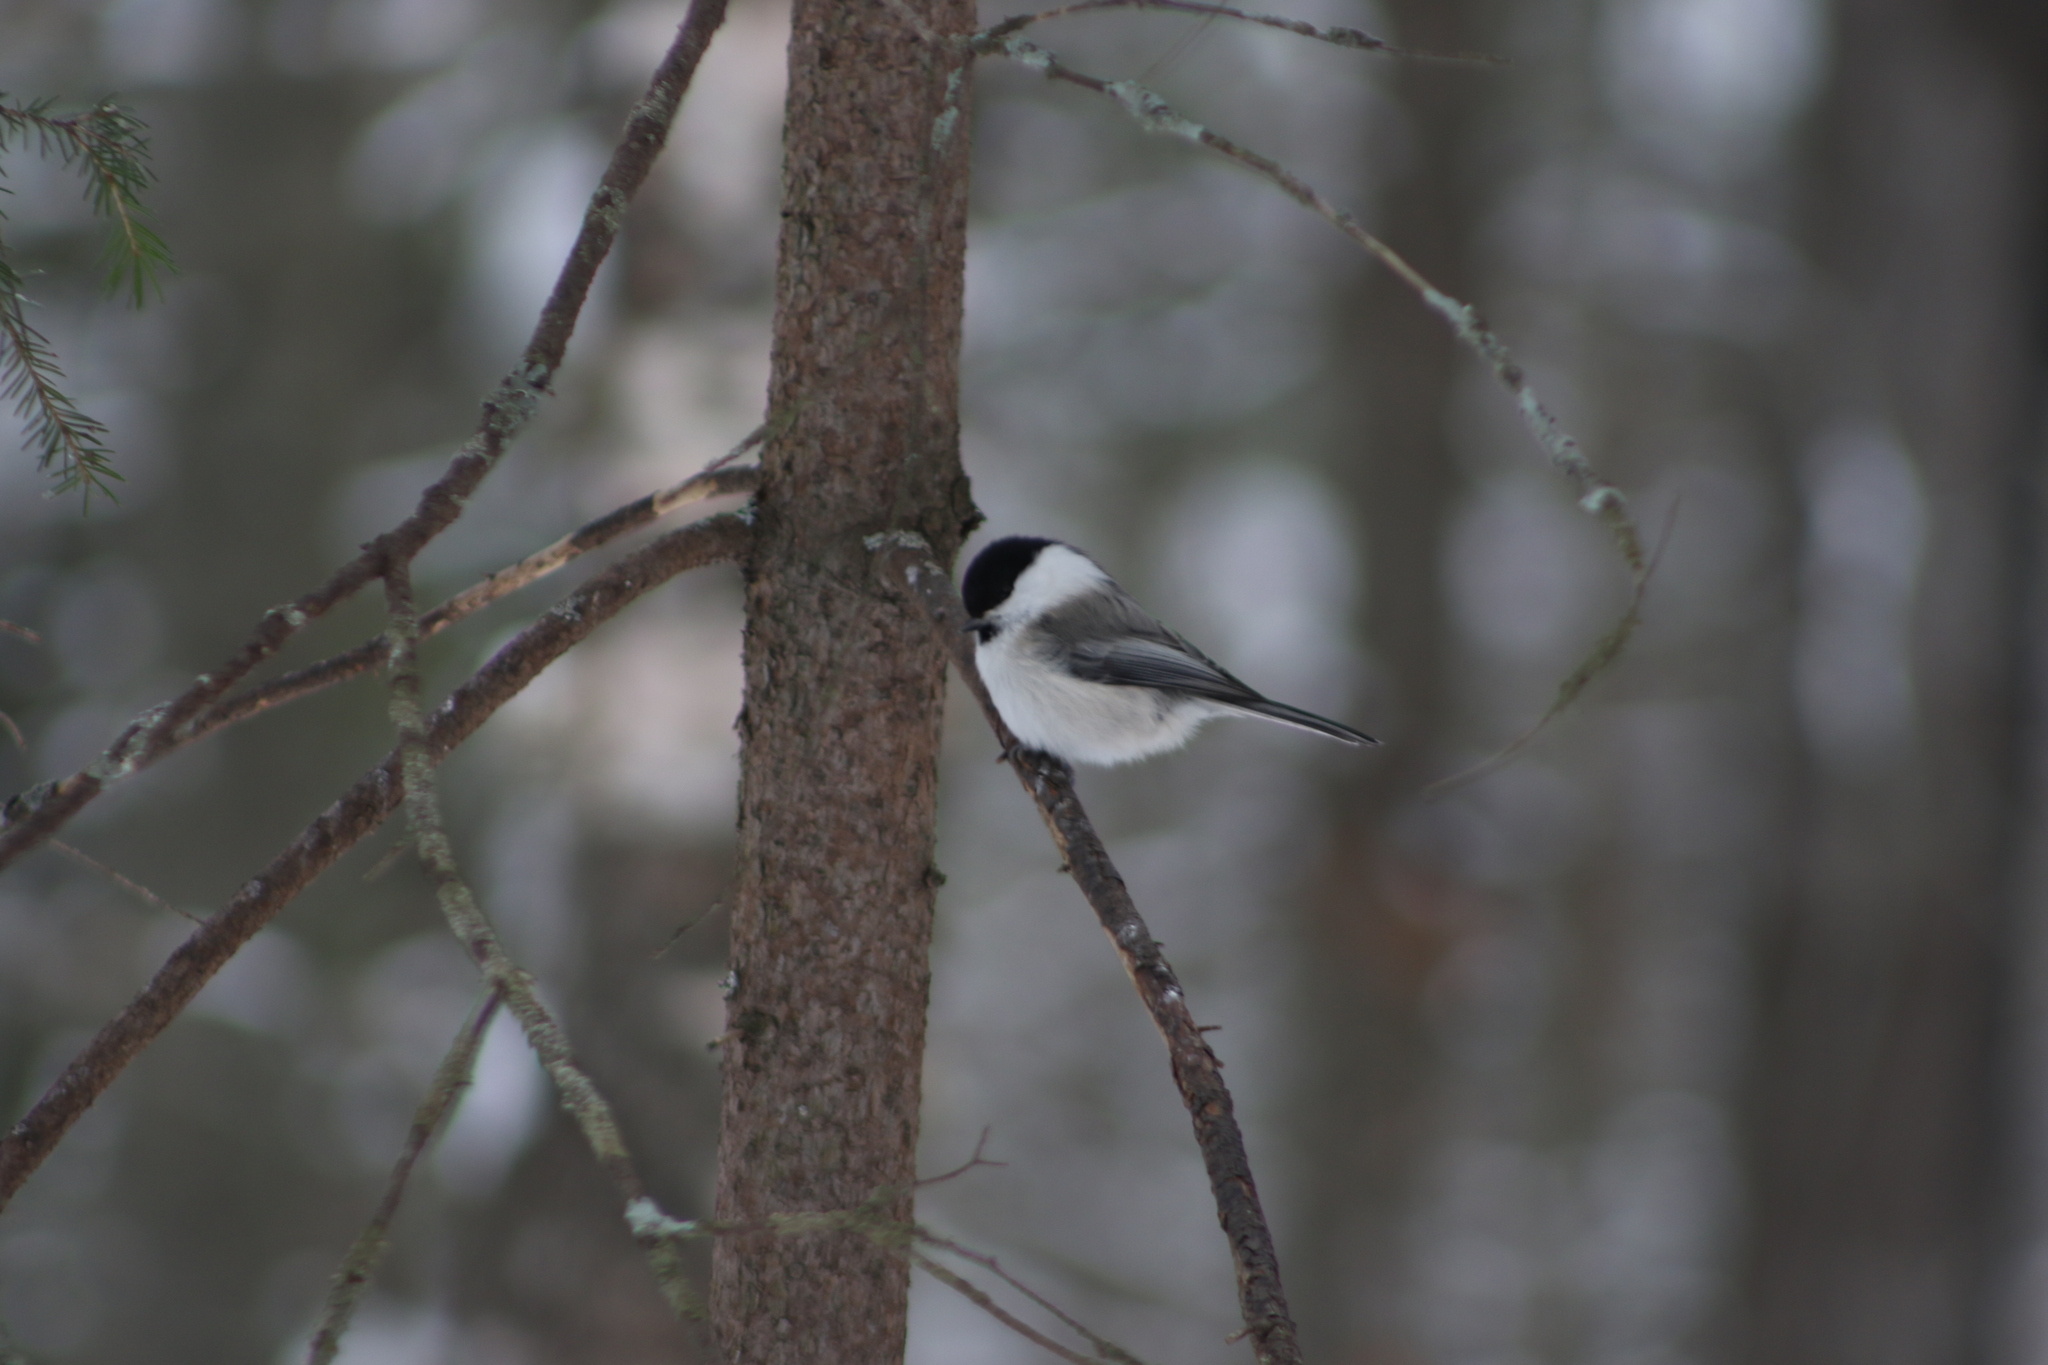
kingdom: Animalia
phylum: Chordata
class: Aves
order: Passeriformes
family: Paridae
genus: Poecile
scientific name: Poecile montanus
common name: Willow tit
